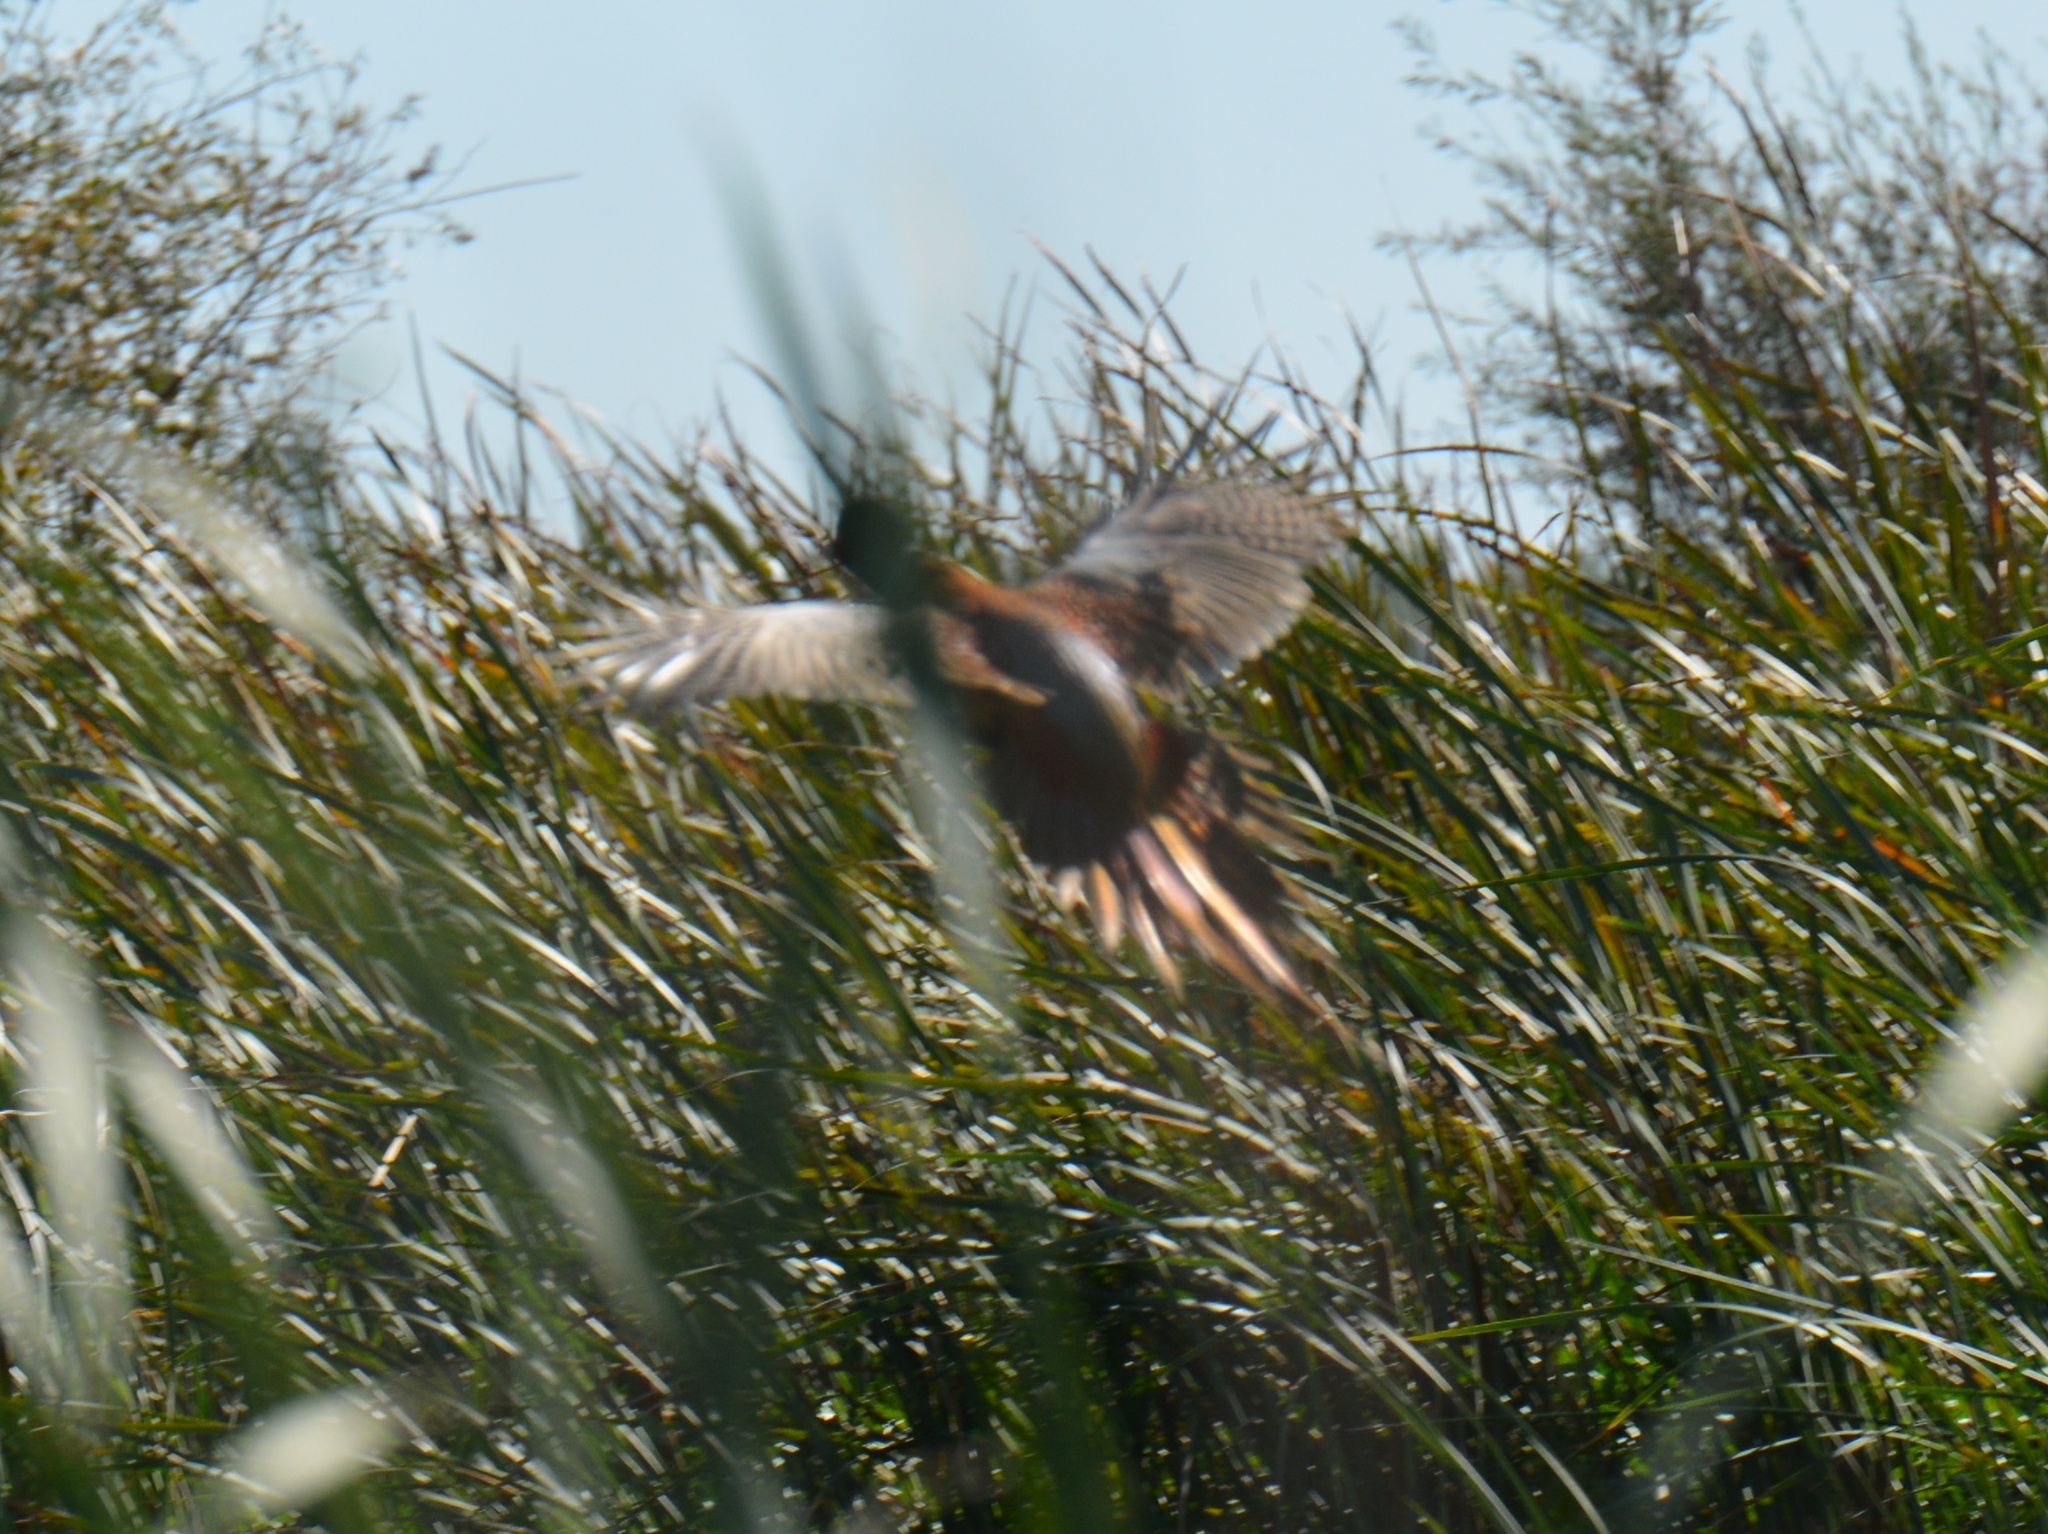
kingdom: Animalia
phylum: Chordata
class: Aves
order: Galliformes
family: Phasianidae
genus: Phasianus
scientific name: Phasianus colchicus
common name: Common pheasant
